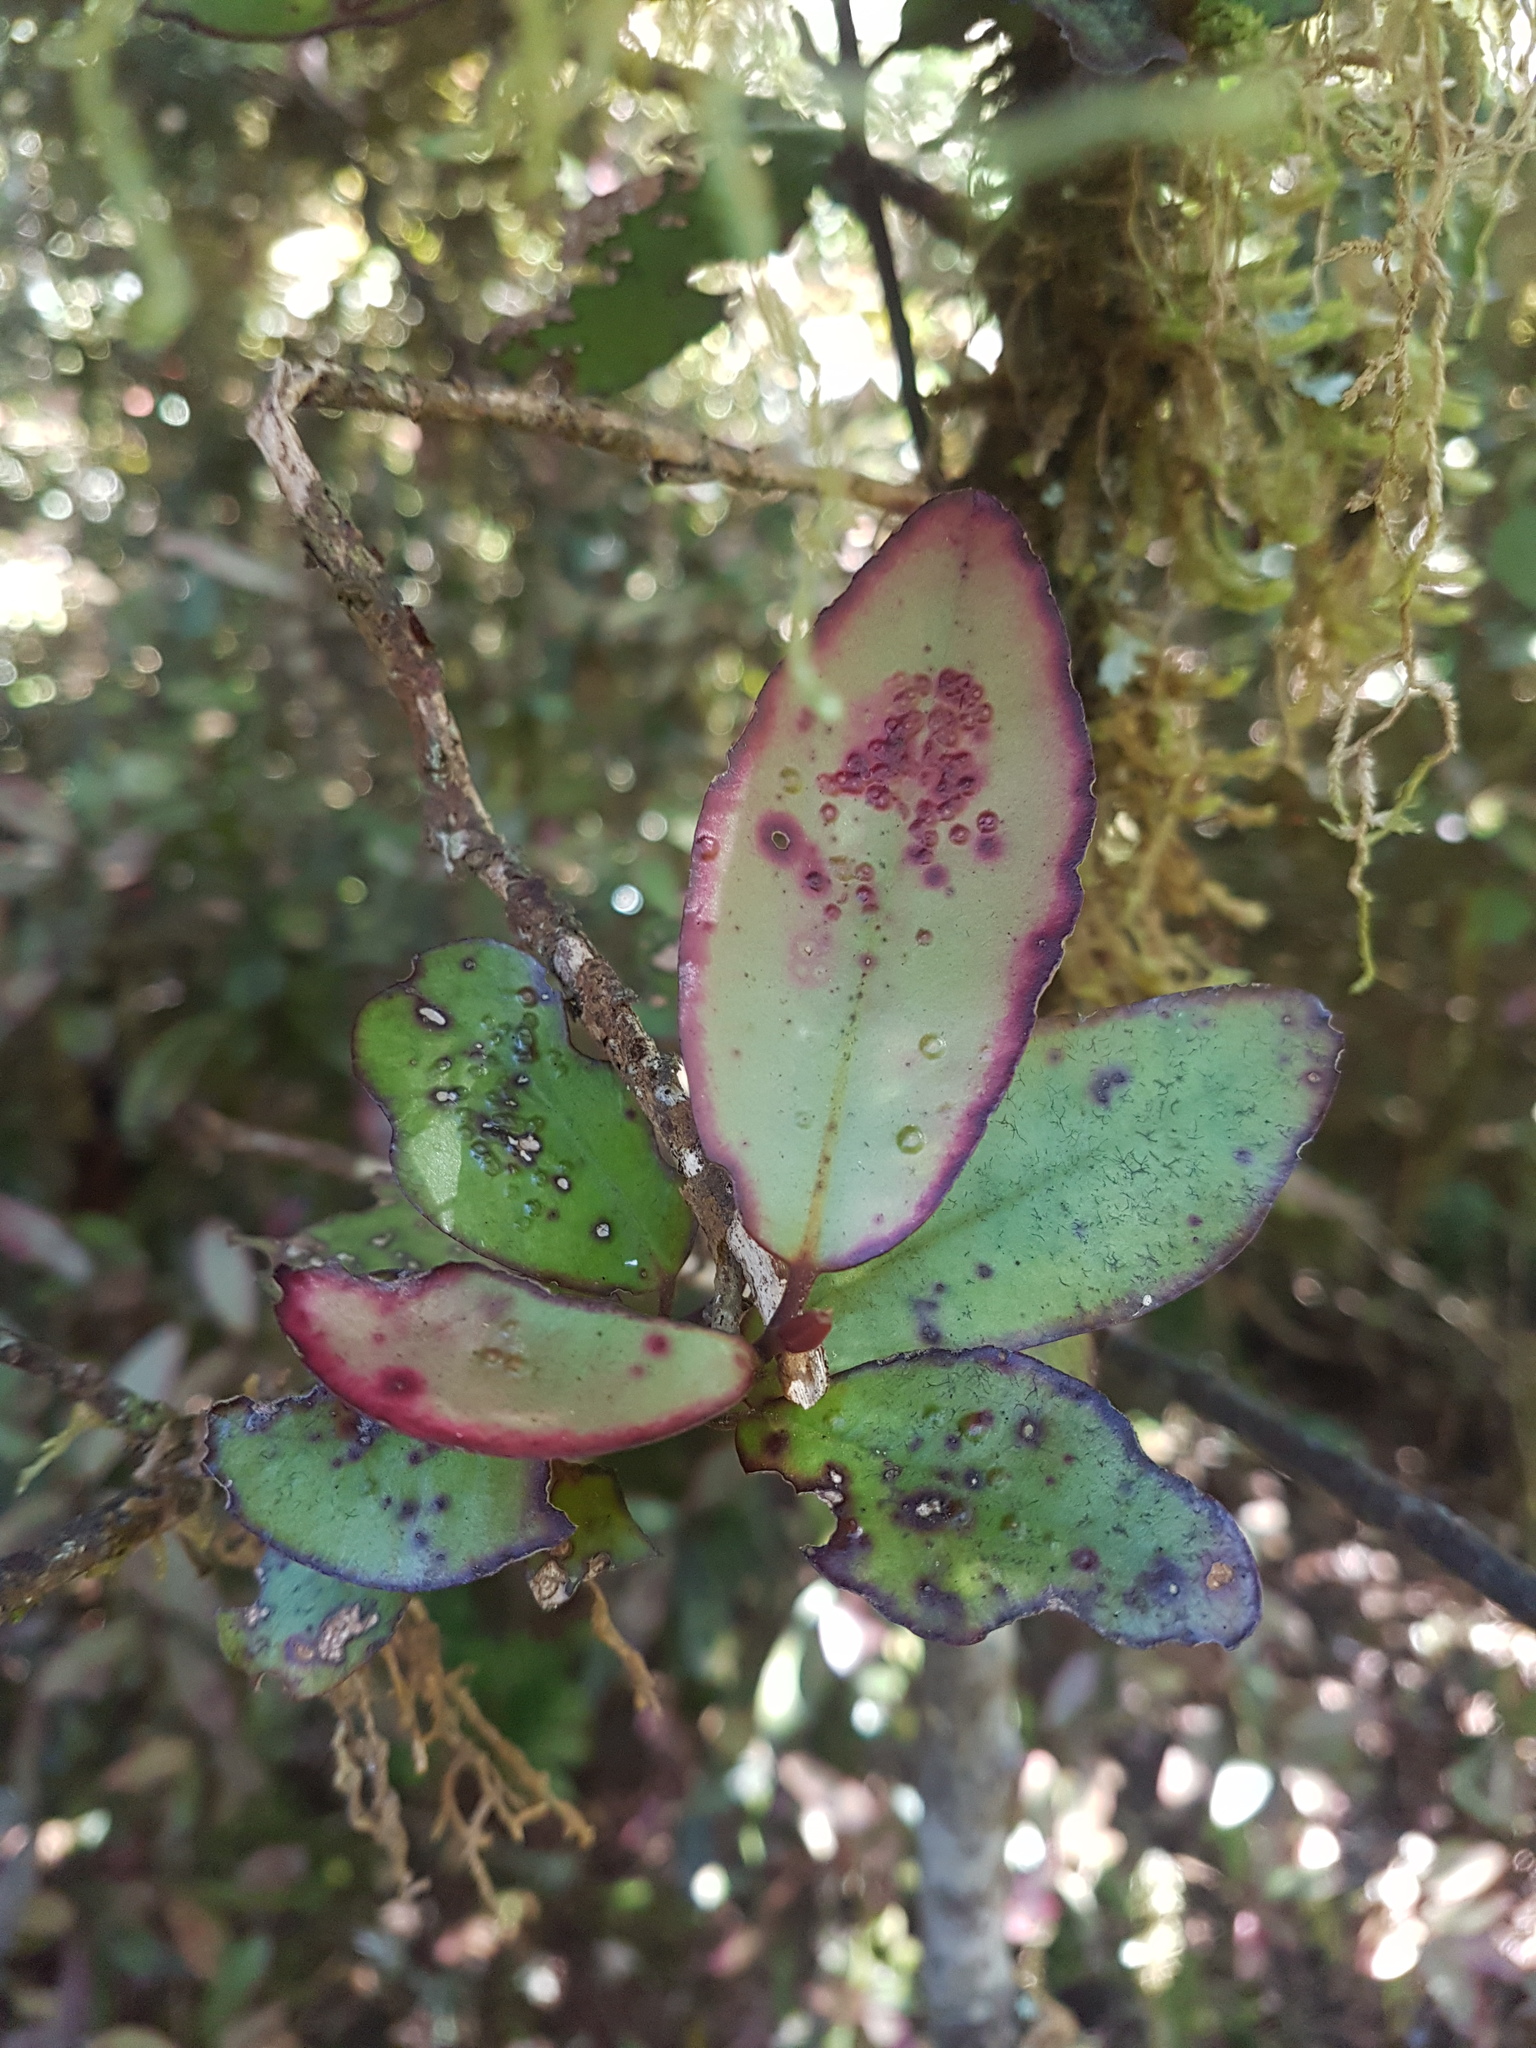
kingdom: Plantae
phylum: Tracheophyta
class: Magnoliopsida
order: Canellales
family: Winteraceae
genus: Pseudowintera
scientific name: Pseudowintera colorata
